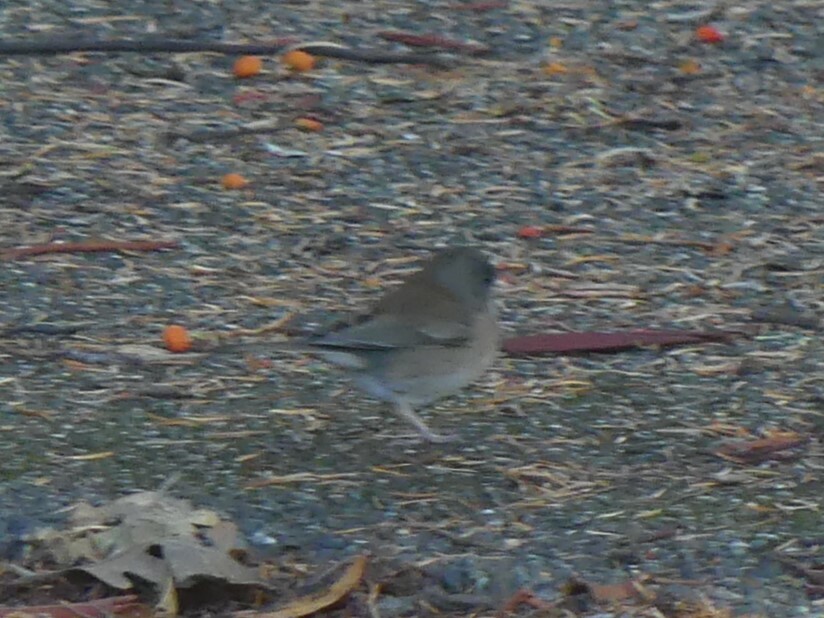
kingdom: Animalia
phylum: Chordata
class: Aves
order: Passeriformes
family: Passerellidae
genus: Junco
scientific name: Junco hyemalis
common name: Dark-eyed junco
